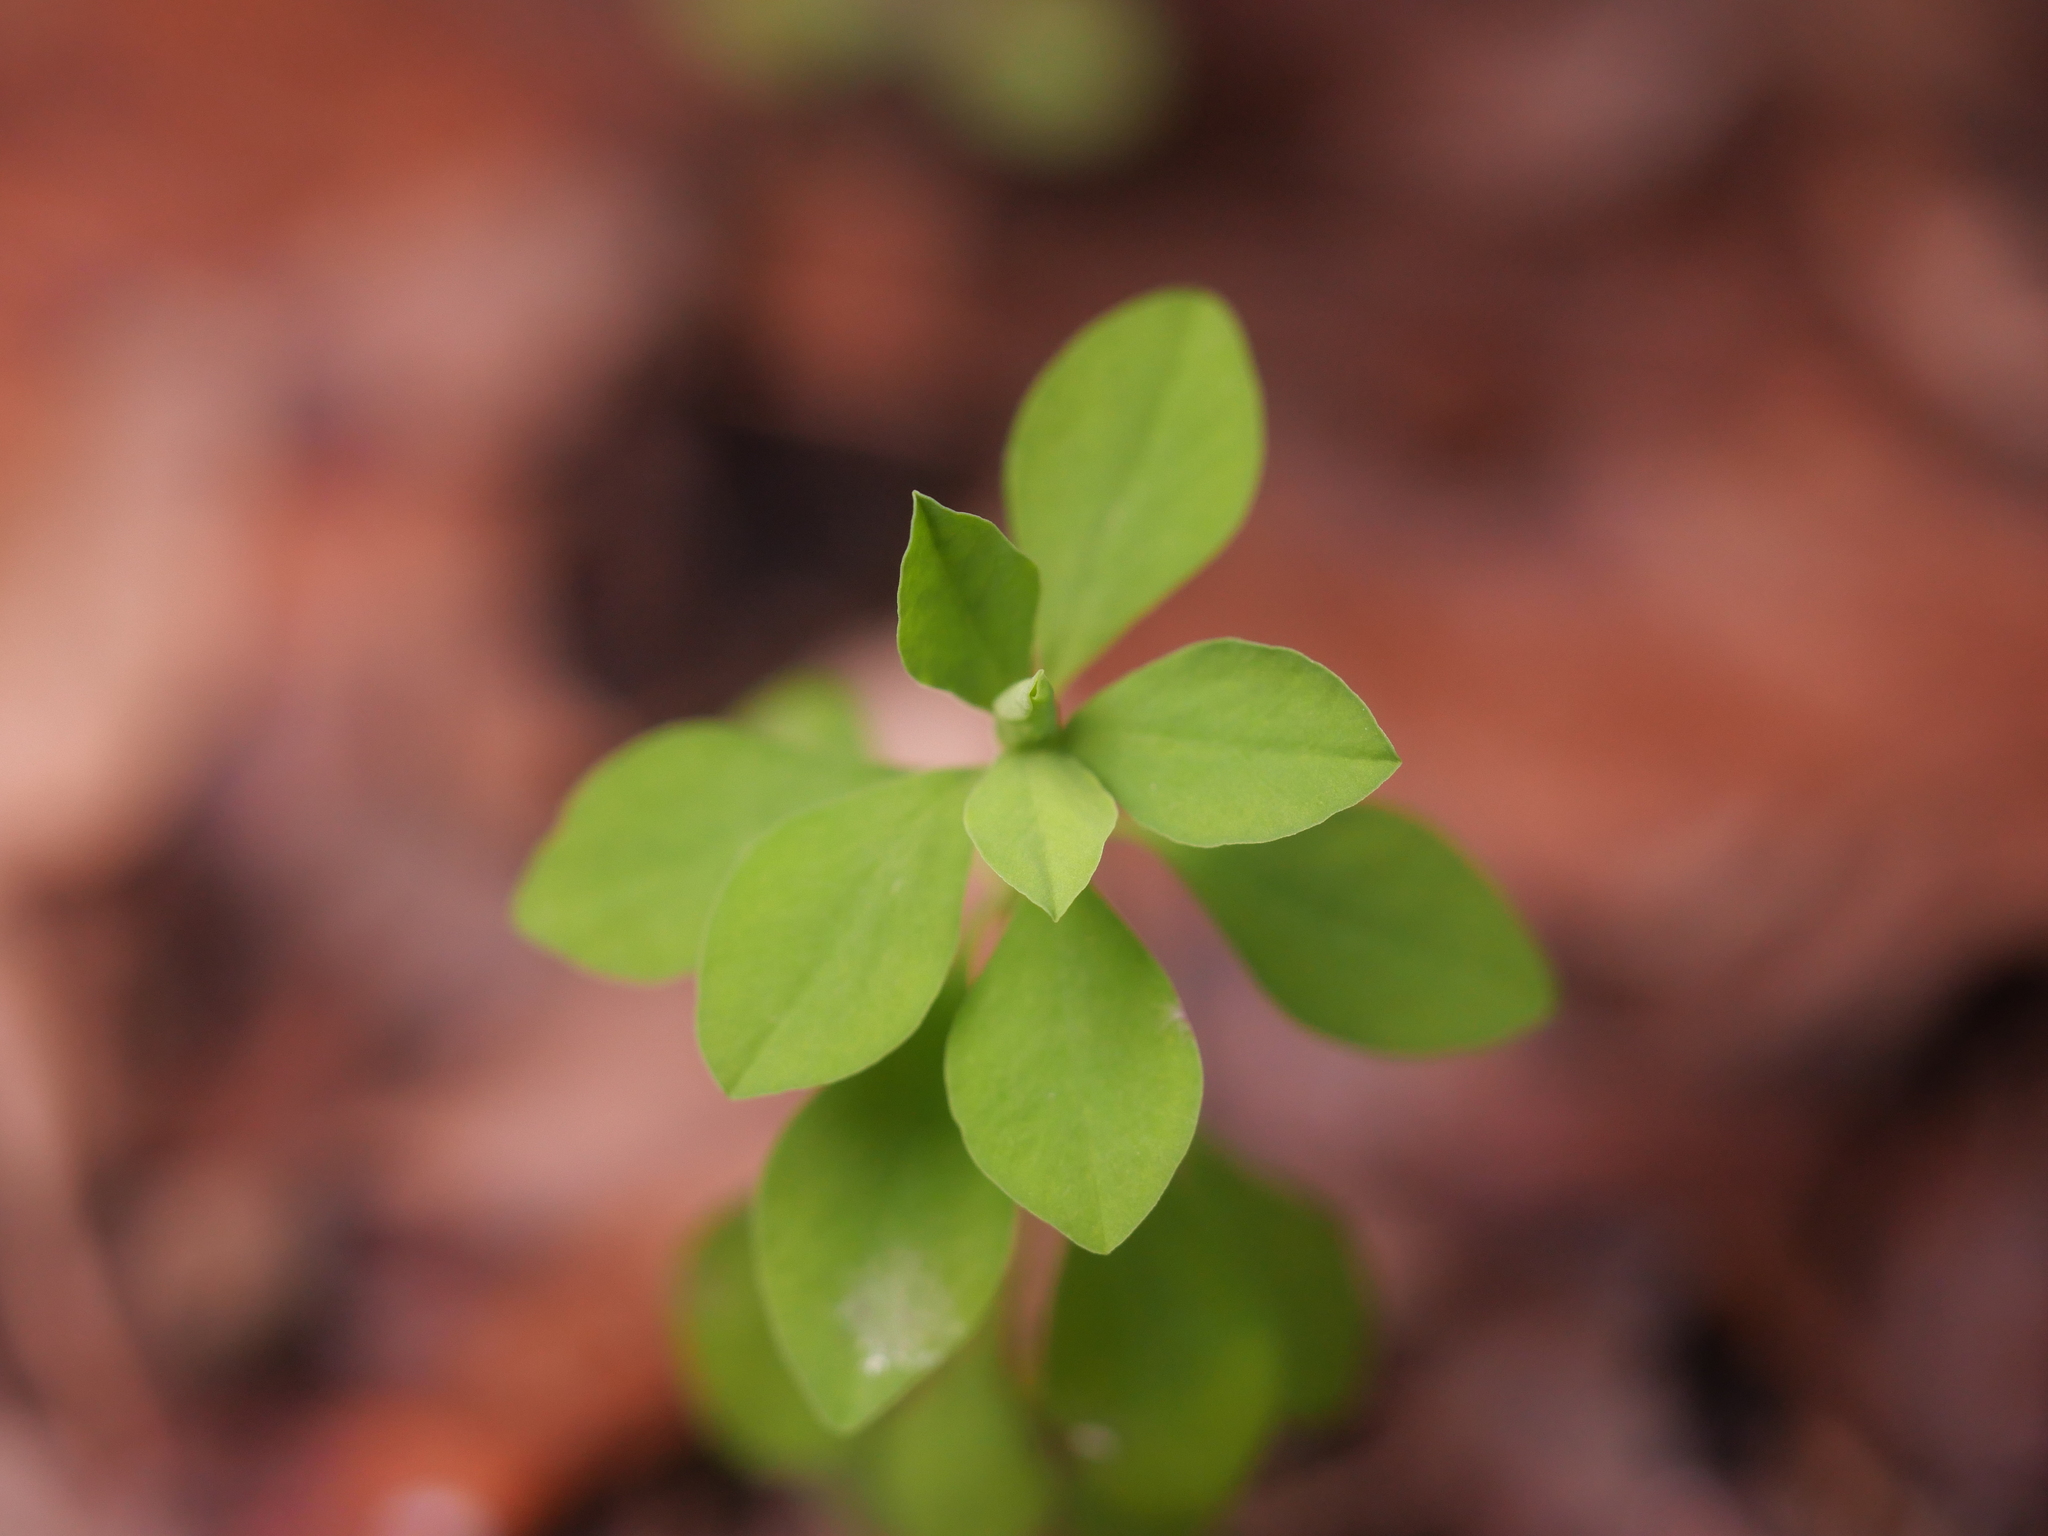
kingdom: Plantae
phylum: Tracheophyta
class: Magnoliopsida
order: Malpighiales
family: Euphorbiaceae
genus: Euphorbia
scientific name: Euphorbia peplus
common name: Petty spurge
